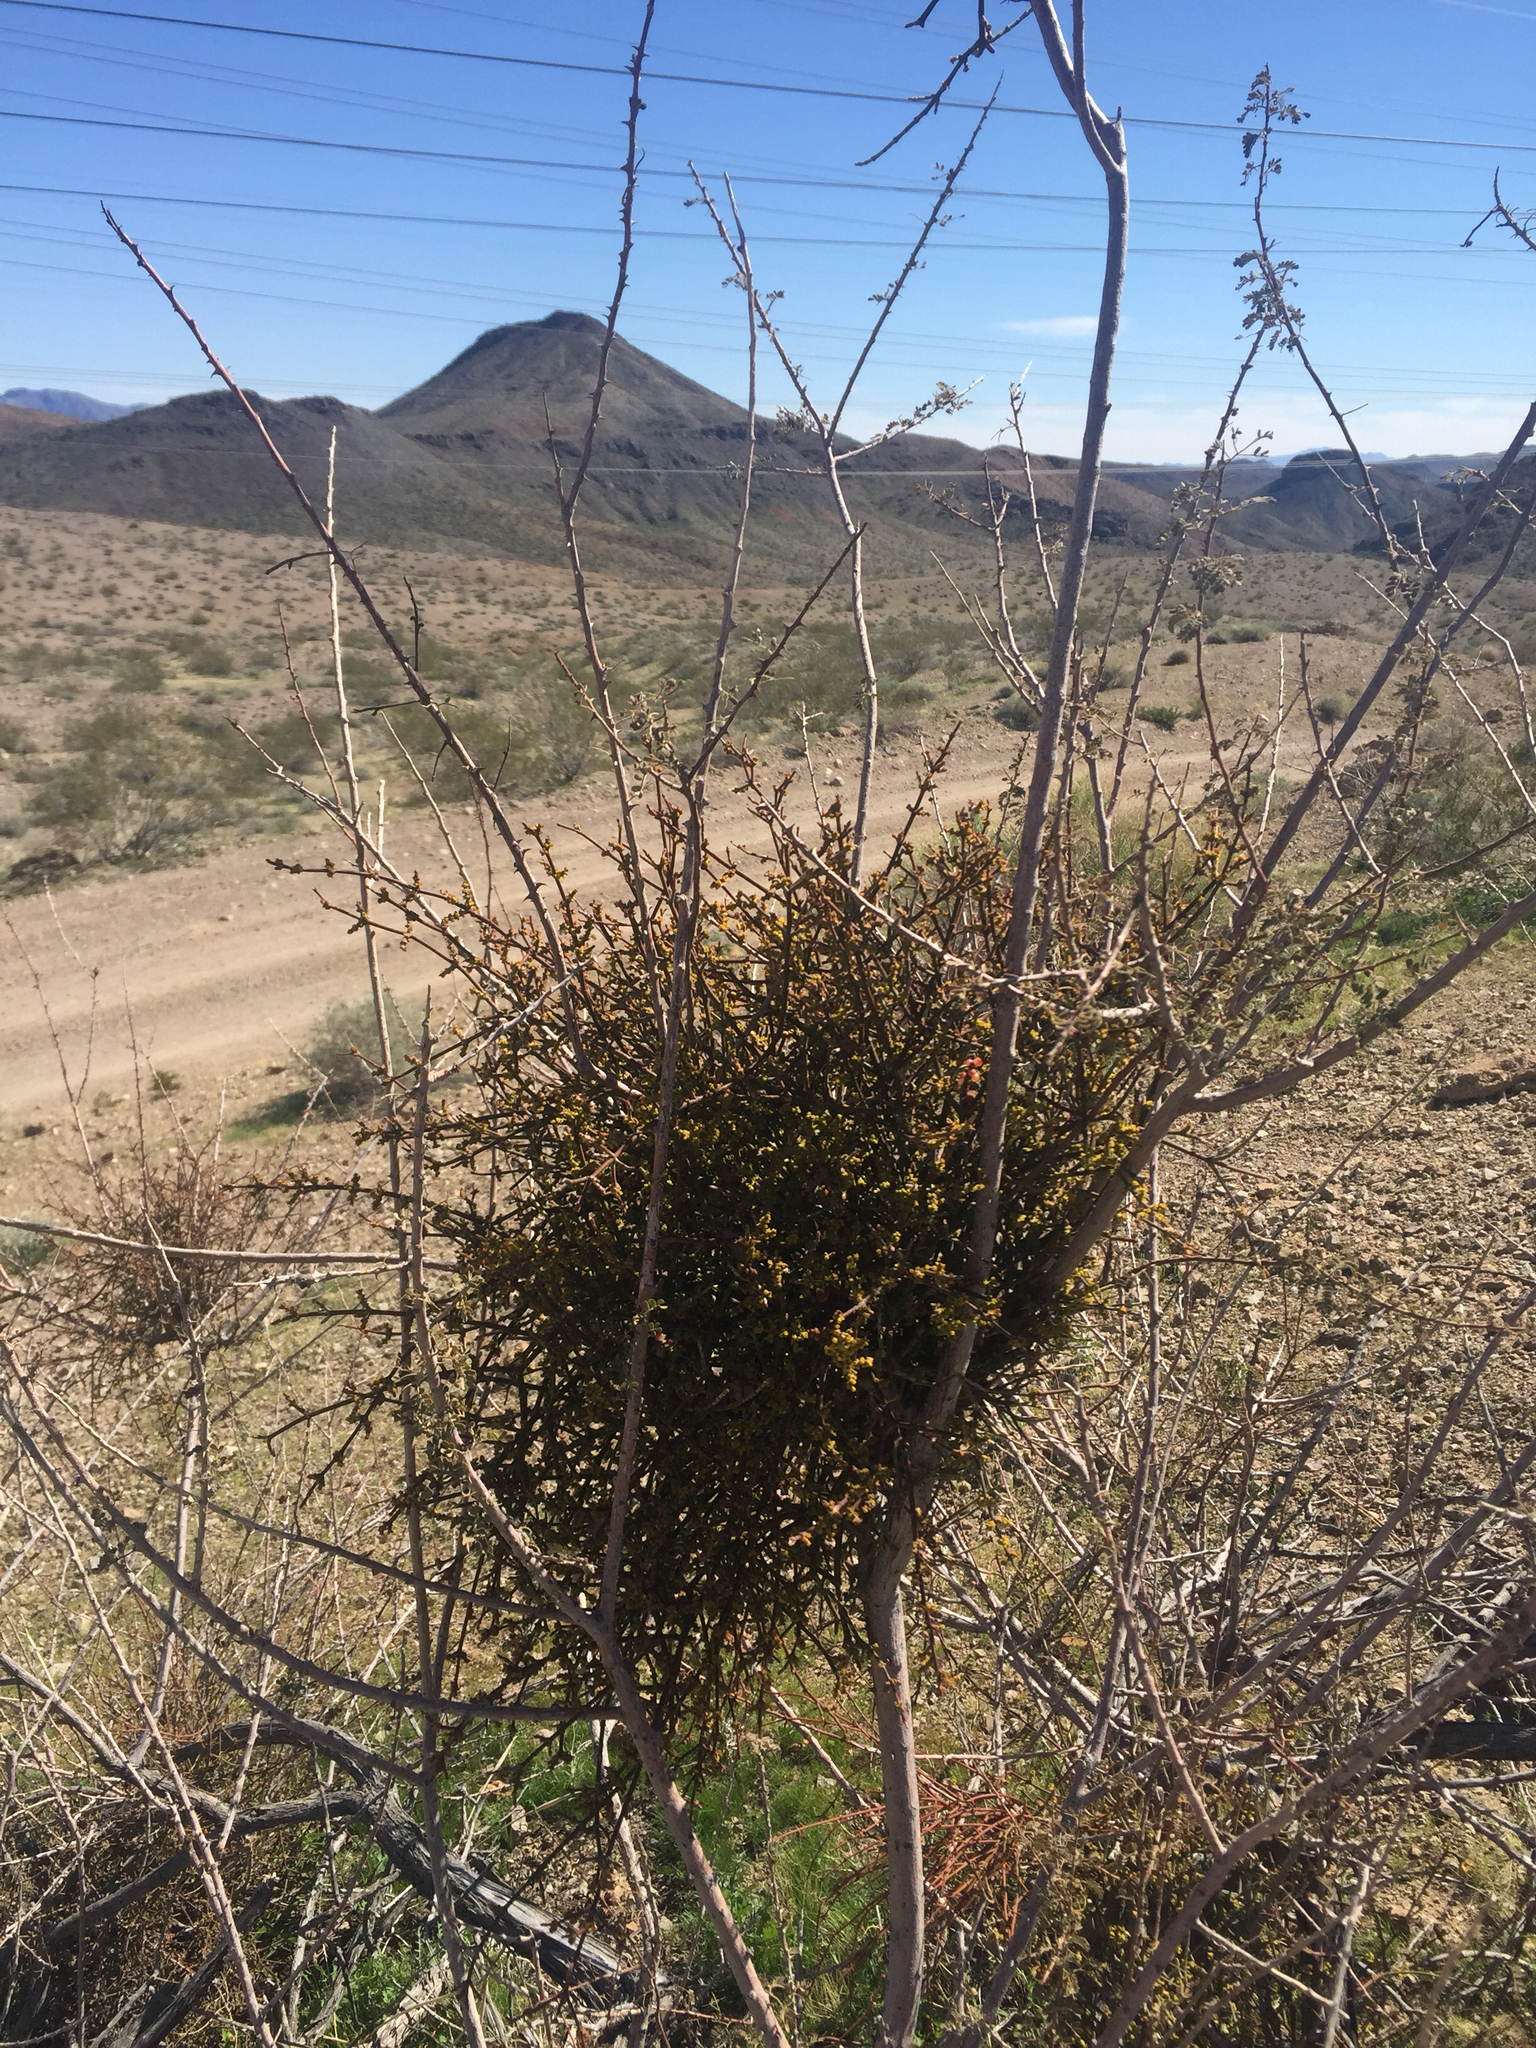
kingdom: Plantae
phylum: Tracheophyta
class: Magnoliopsida
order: Santalales
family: Viscaceae
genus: Phoradendron
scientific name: Phoradendron californicum
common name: Acacia mistletoe
